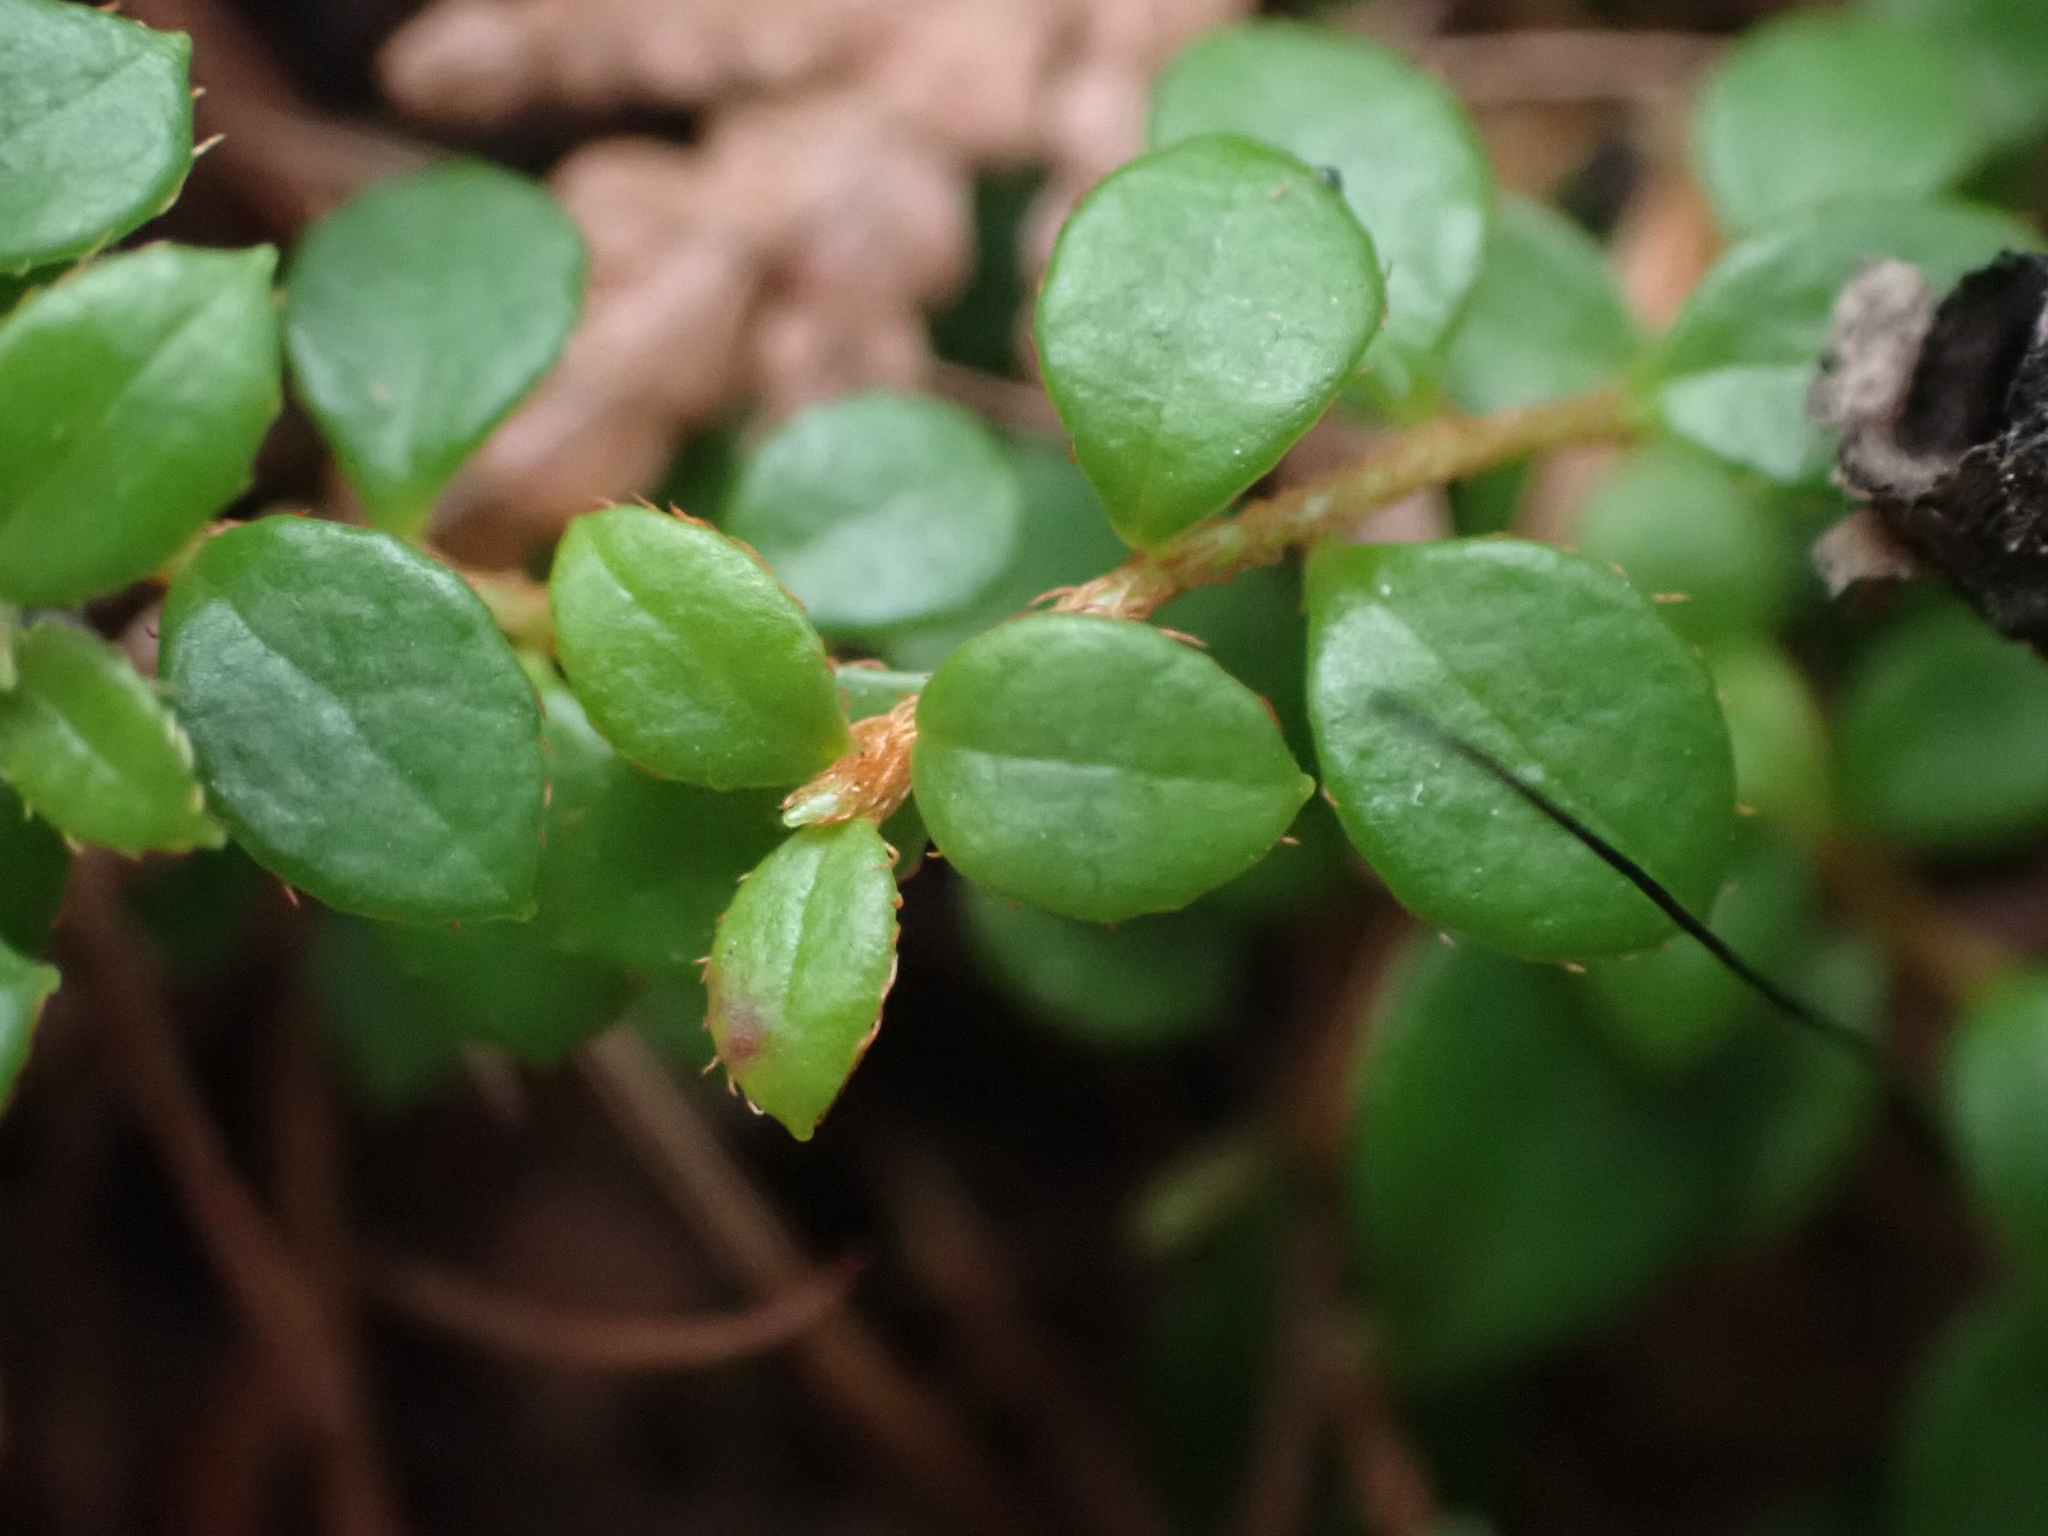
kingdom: Plantae
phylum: Tracheophyta
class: Magnoliopsida
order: Ericales
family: Ericaceae
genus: Gaultheria
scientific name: Gaultheria hispidula
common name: Cancer wintergreen
